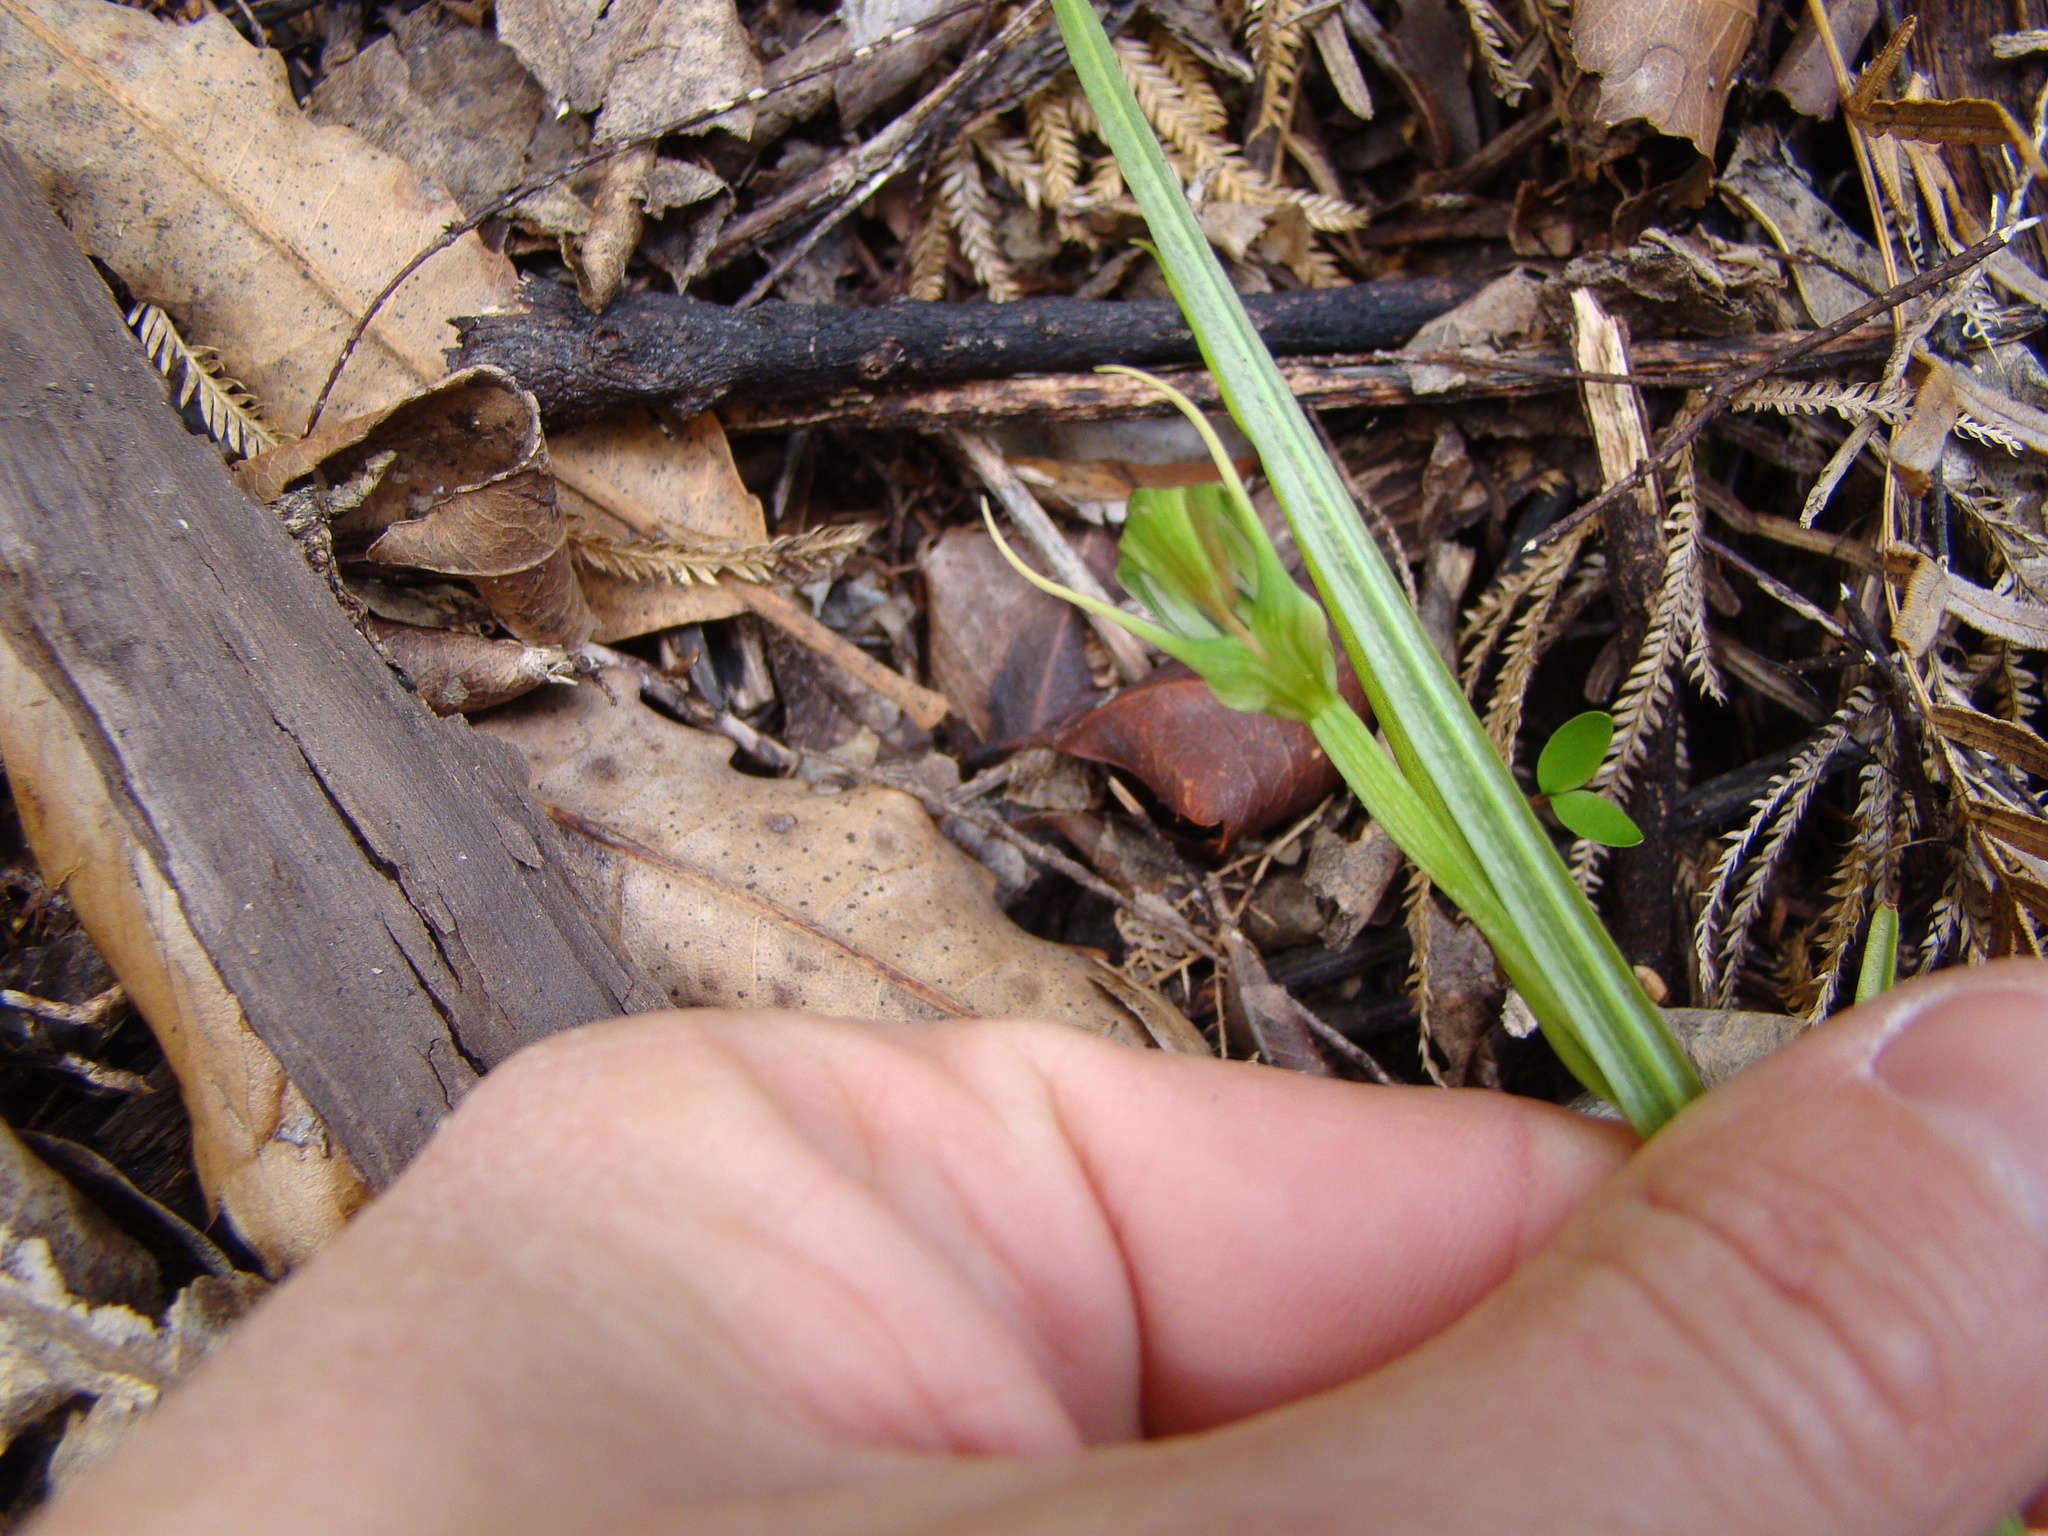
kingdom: Plantae
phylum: Tracheophyta
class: Liliopsida
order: Asparagales
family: Orchidaceae
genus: Pterostylis
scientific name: Pterostylis graminea
